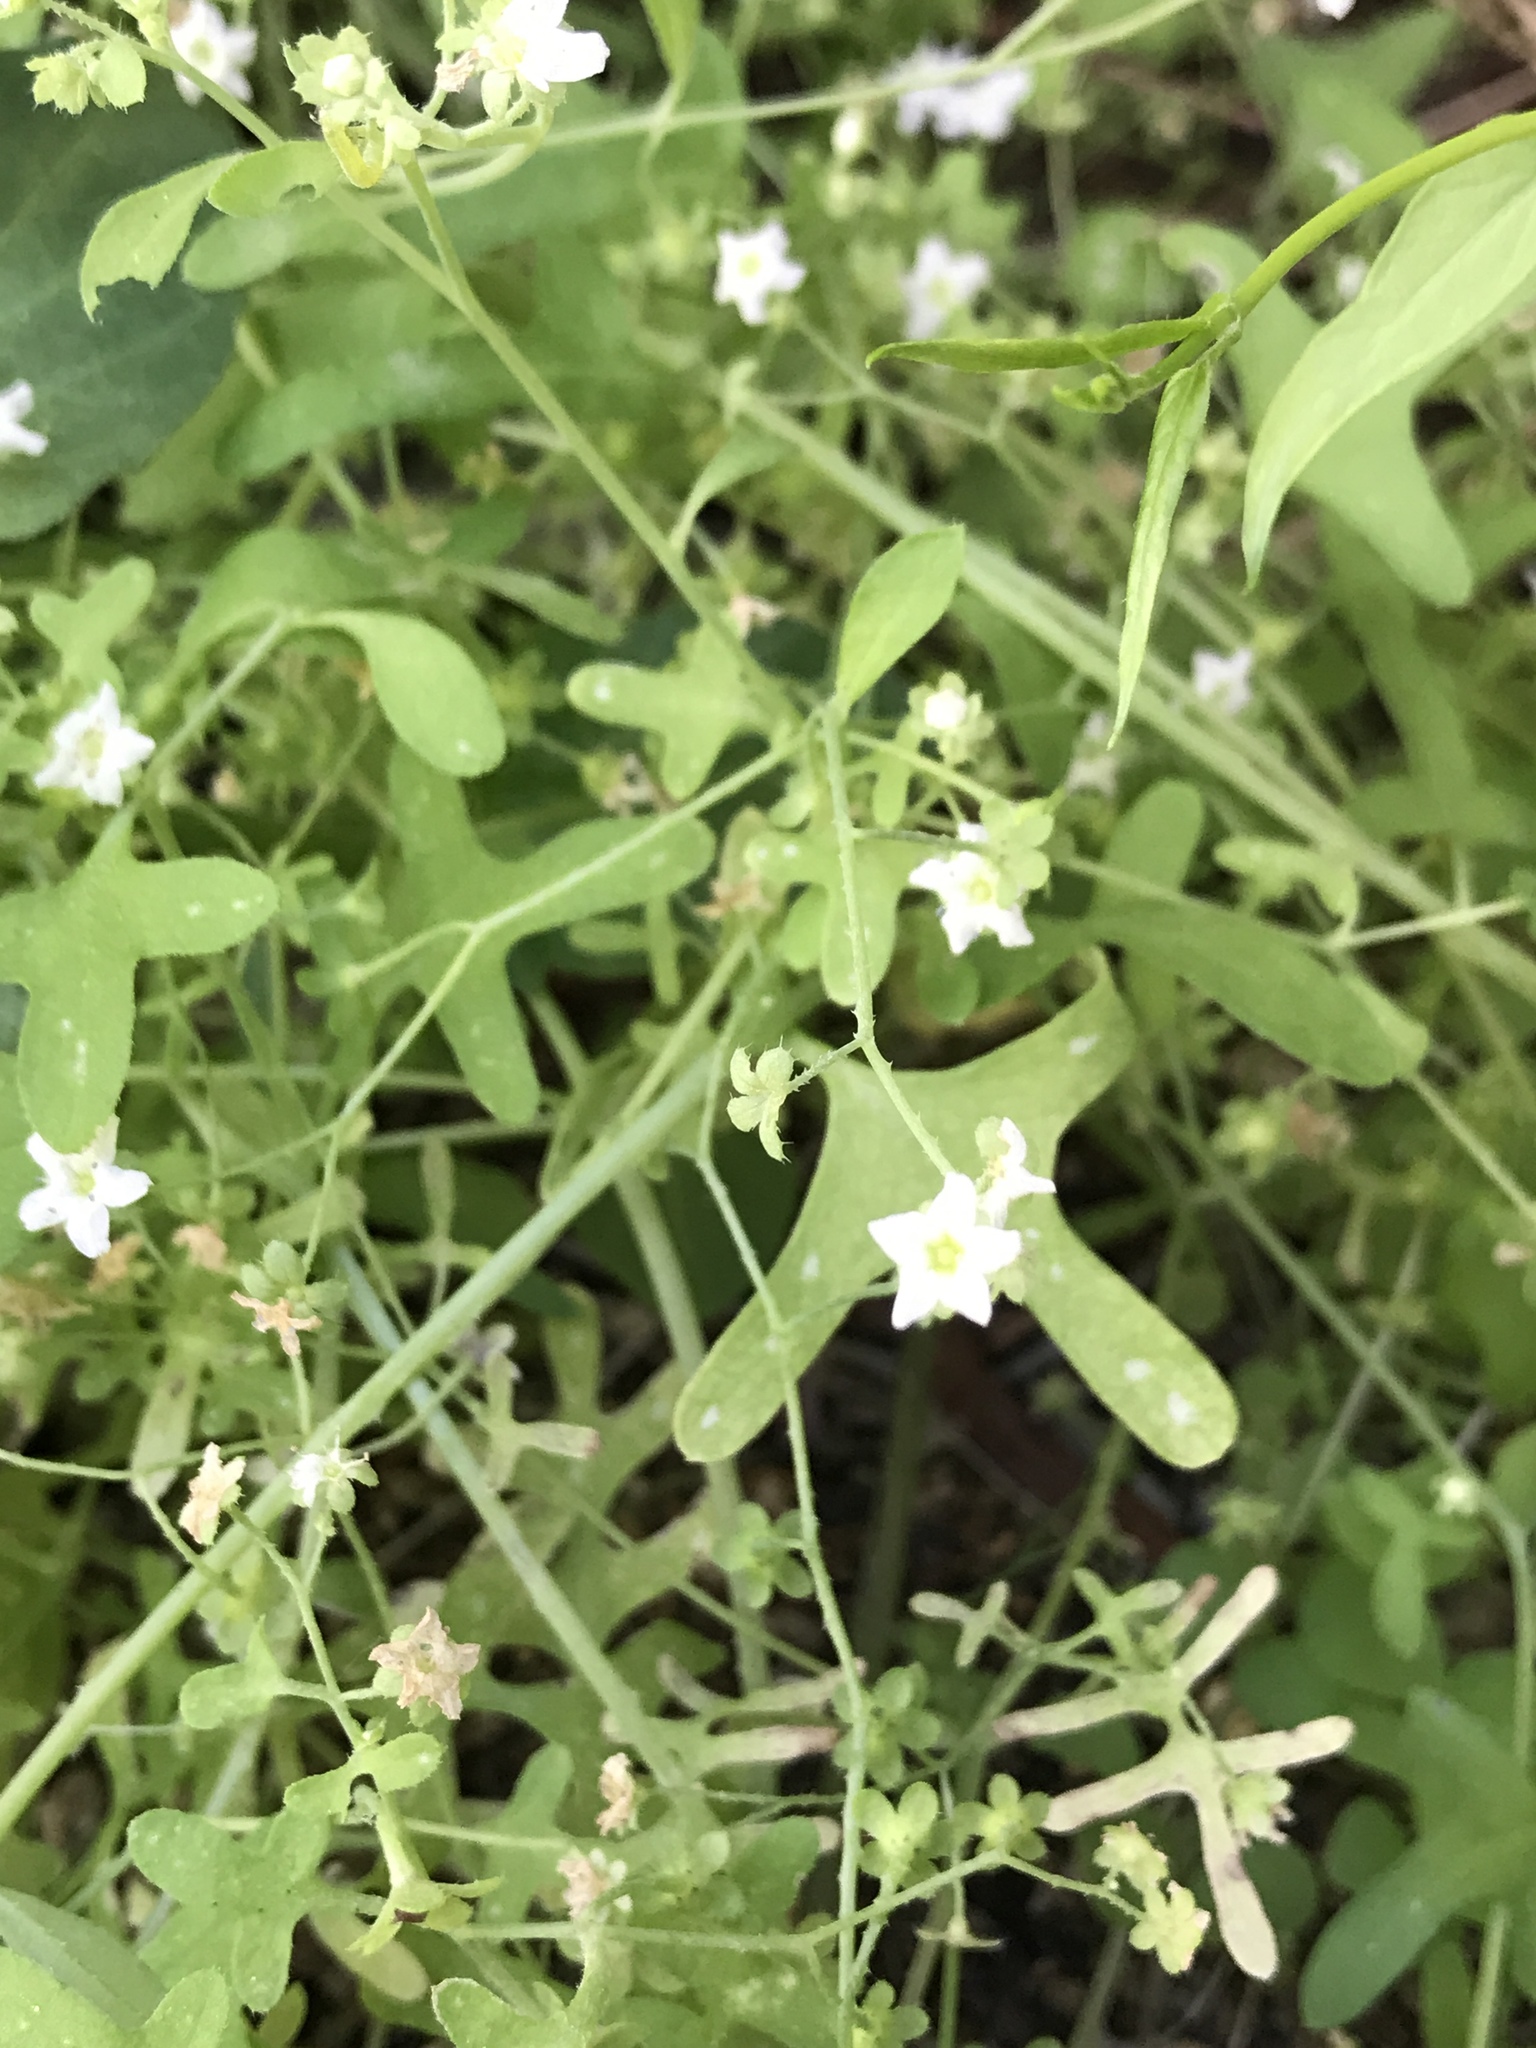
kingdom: Plantae
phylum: Tracheophyta
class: Magnoliopsida
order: Boraginales
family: Hydrophyllaceae
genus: Pholistoma
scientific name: Pholistoma membranaceum
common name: White fiesta-flower
